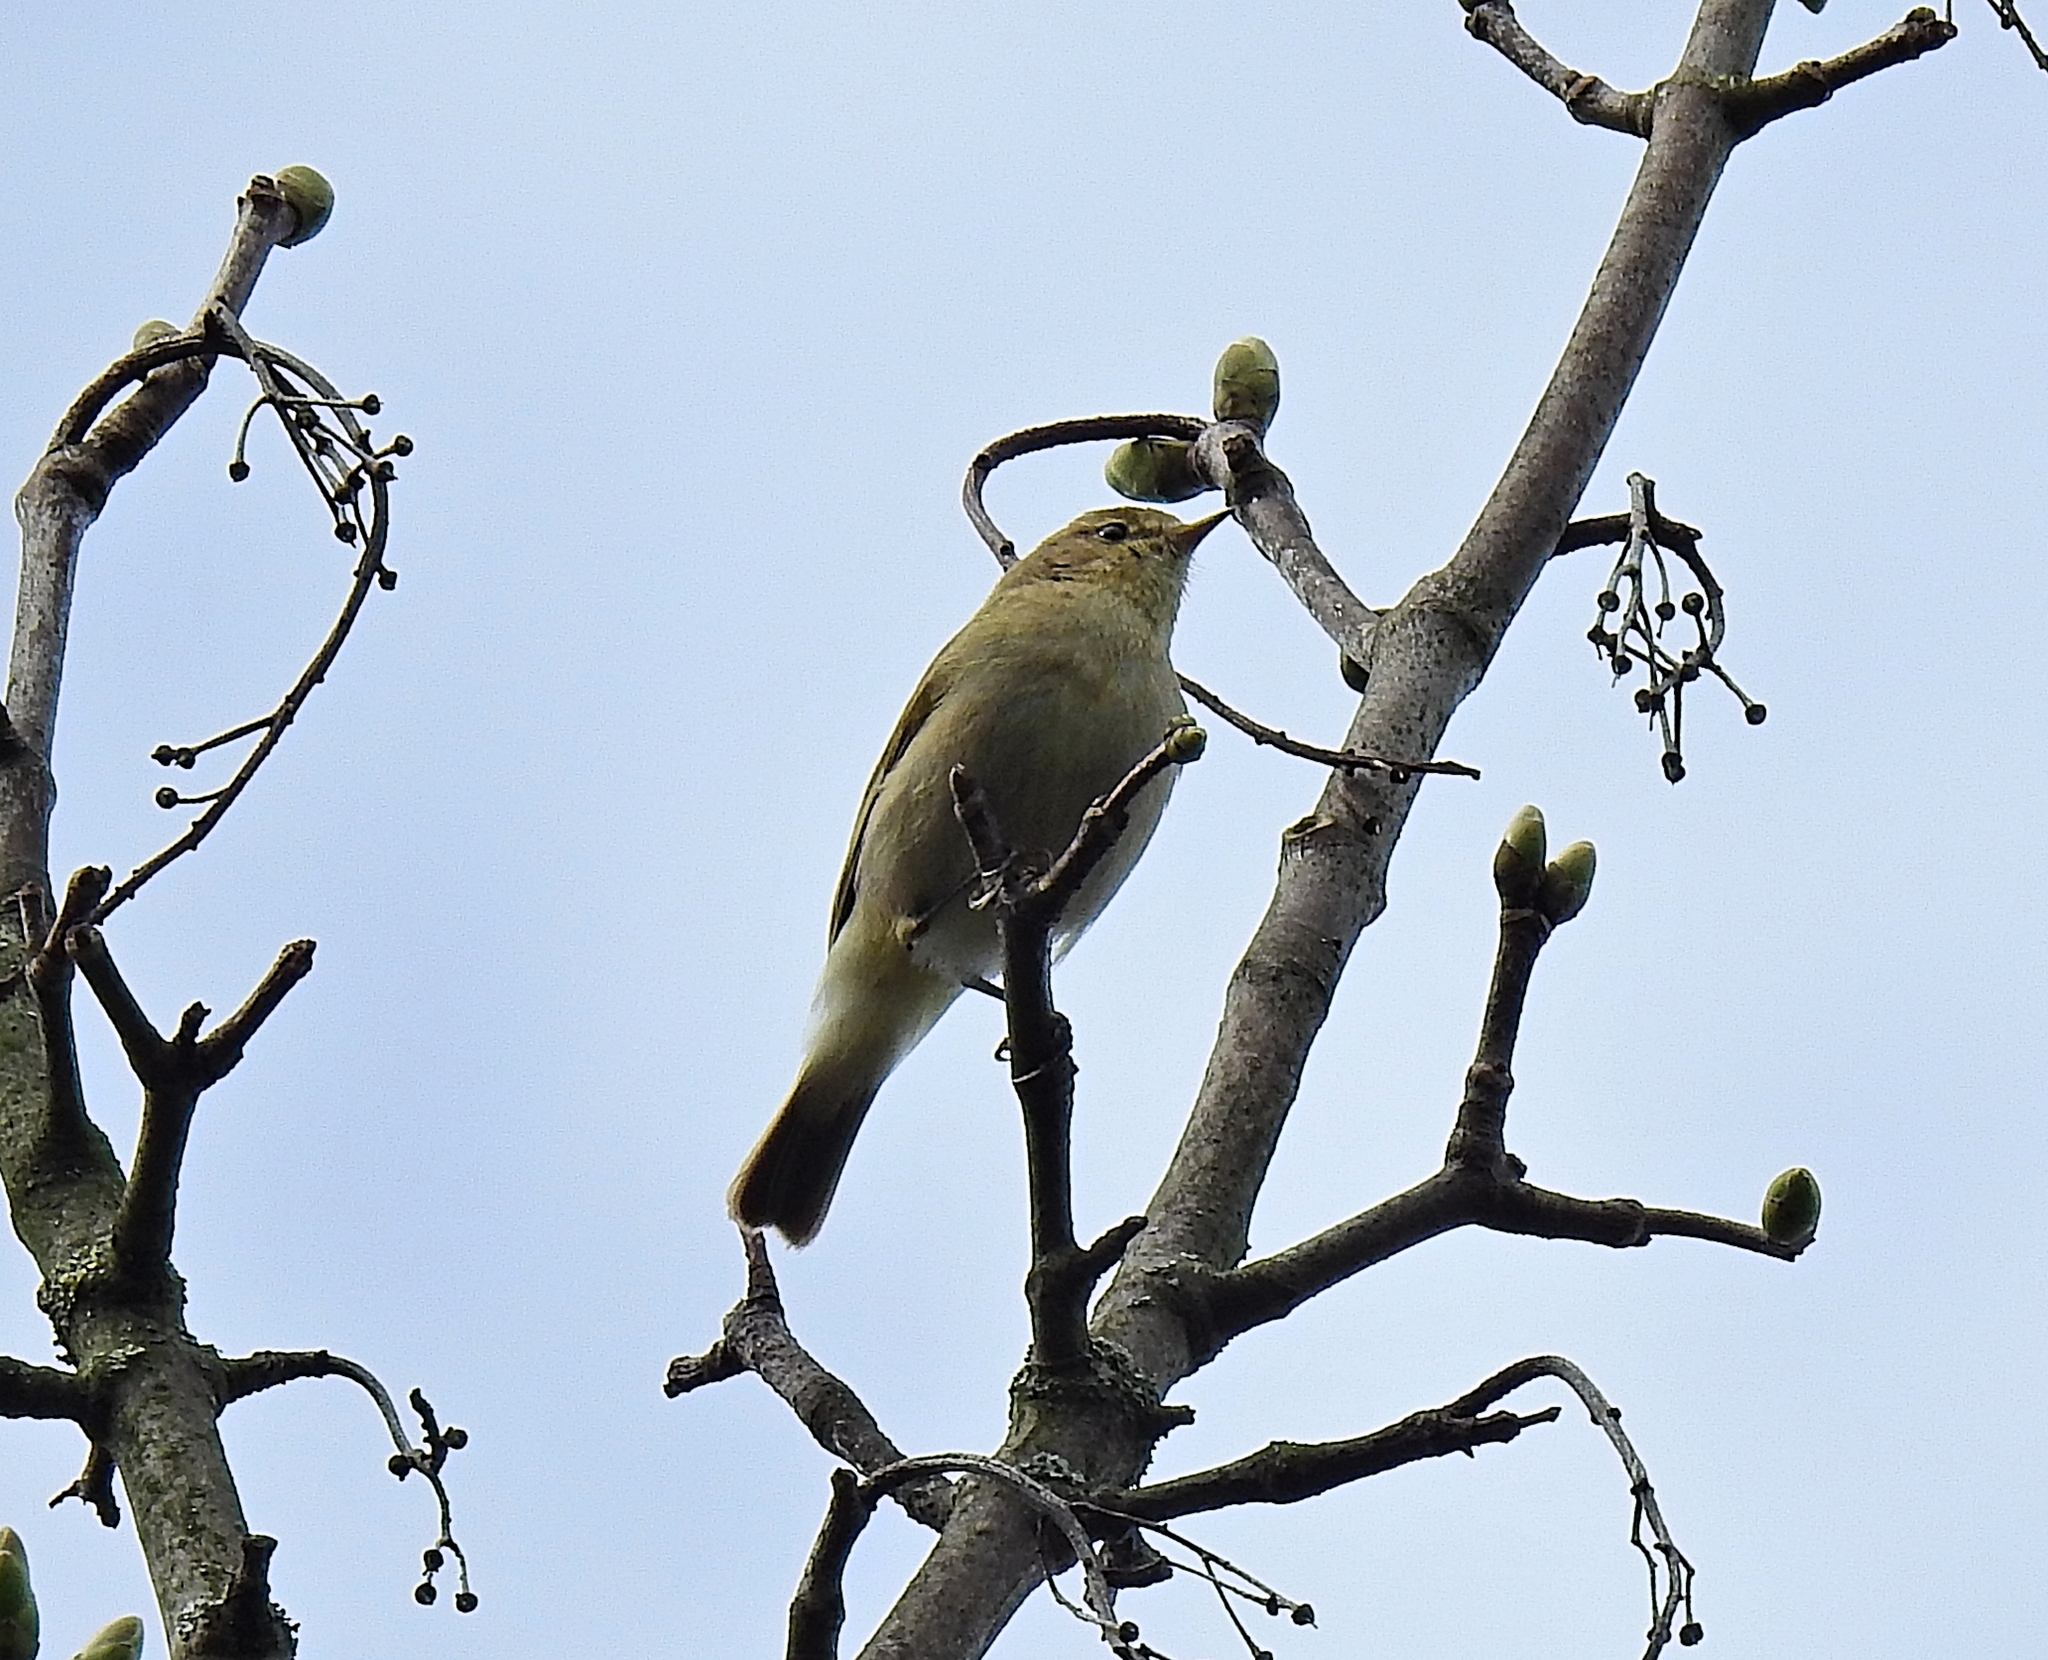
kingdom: Animalia
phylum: Chordata
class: Aves
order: Passeriformes
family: Phylloscopidae
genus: Phylloscopus
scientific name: Phylloscopus collybita
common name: Common chiffchaff
